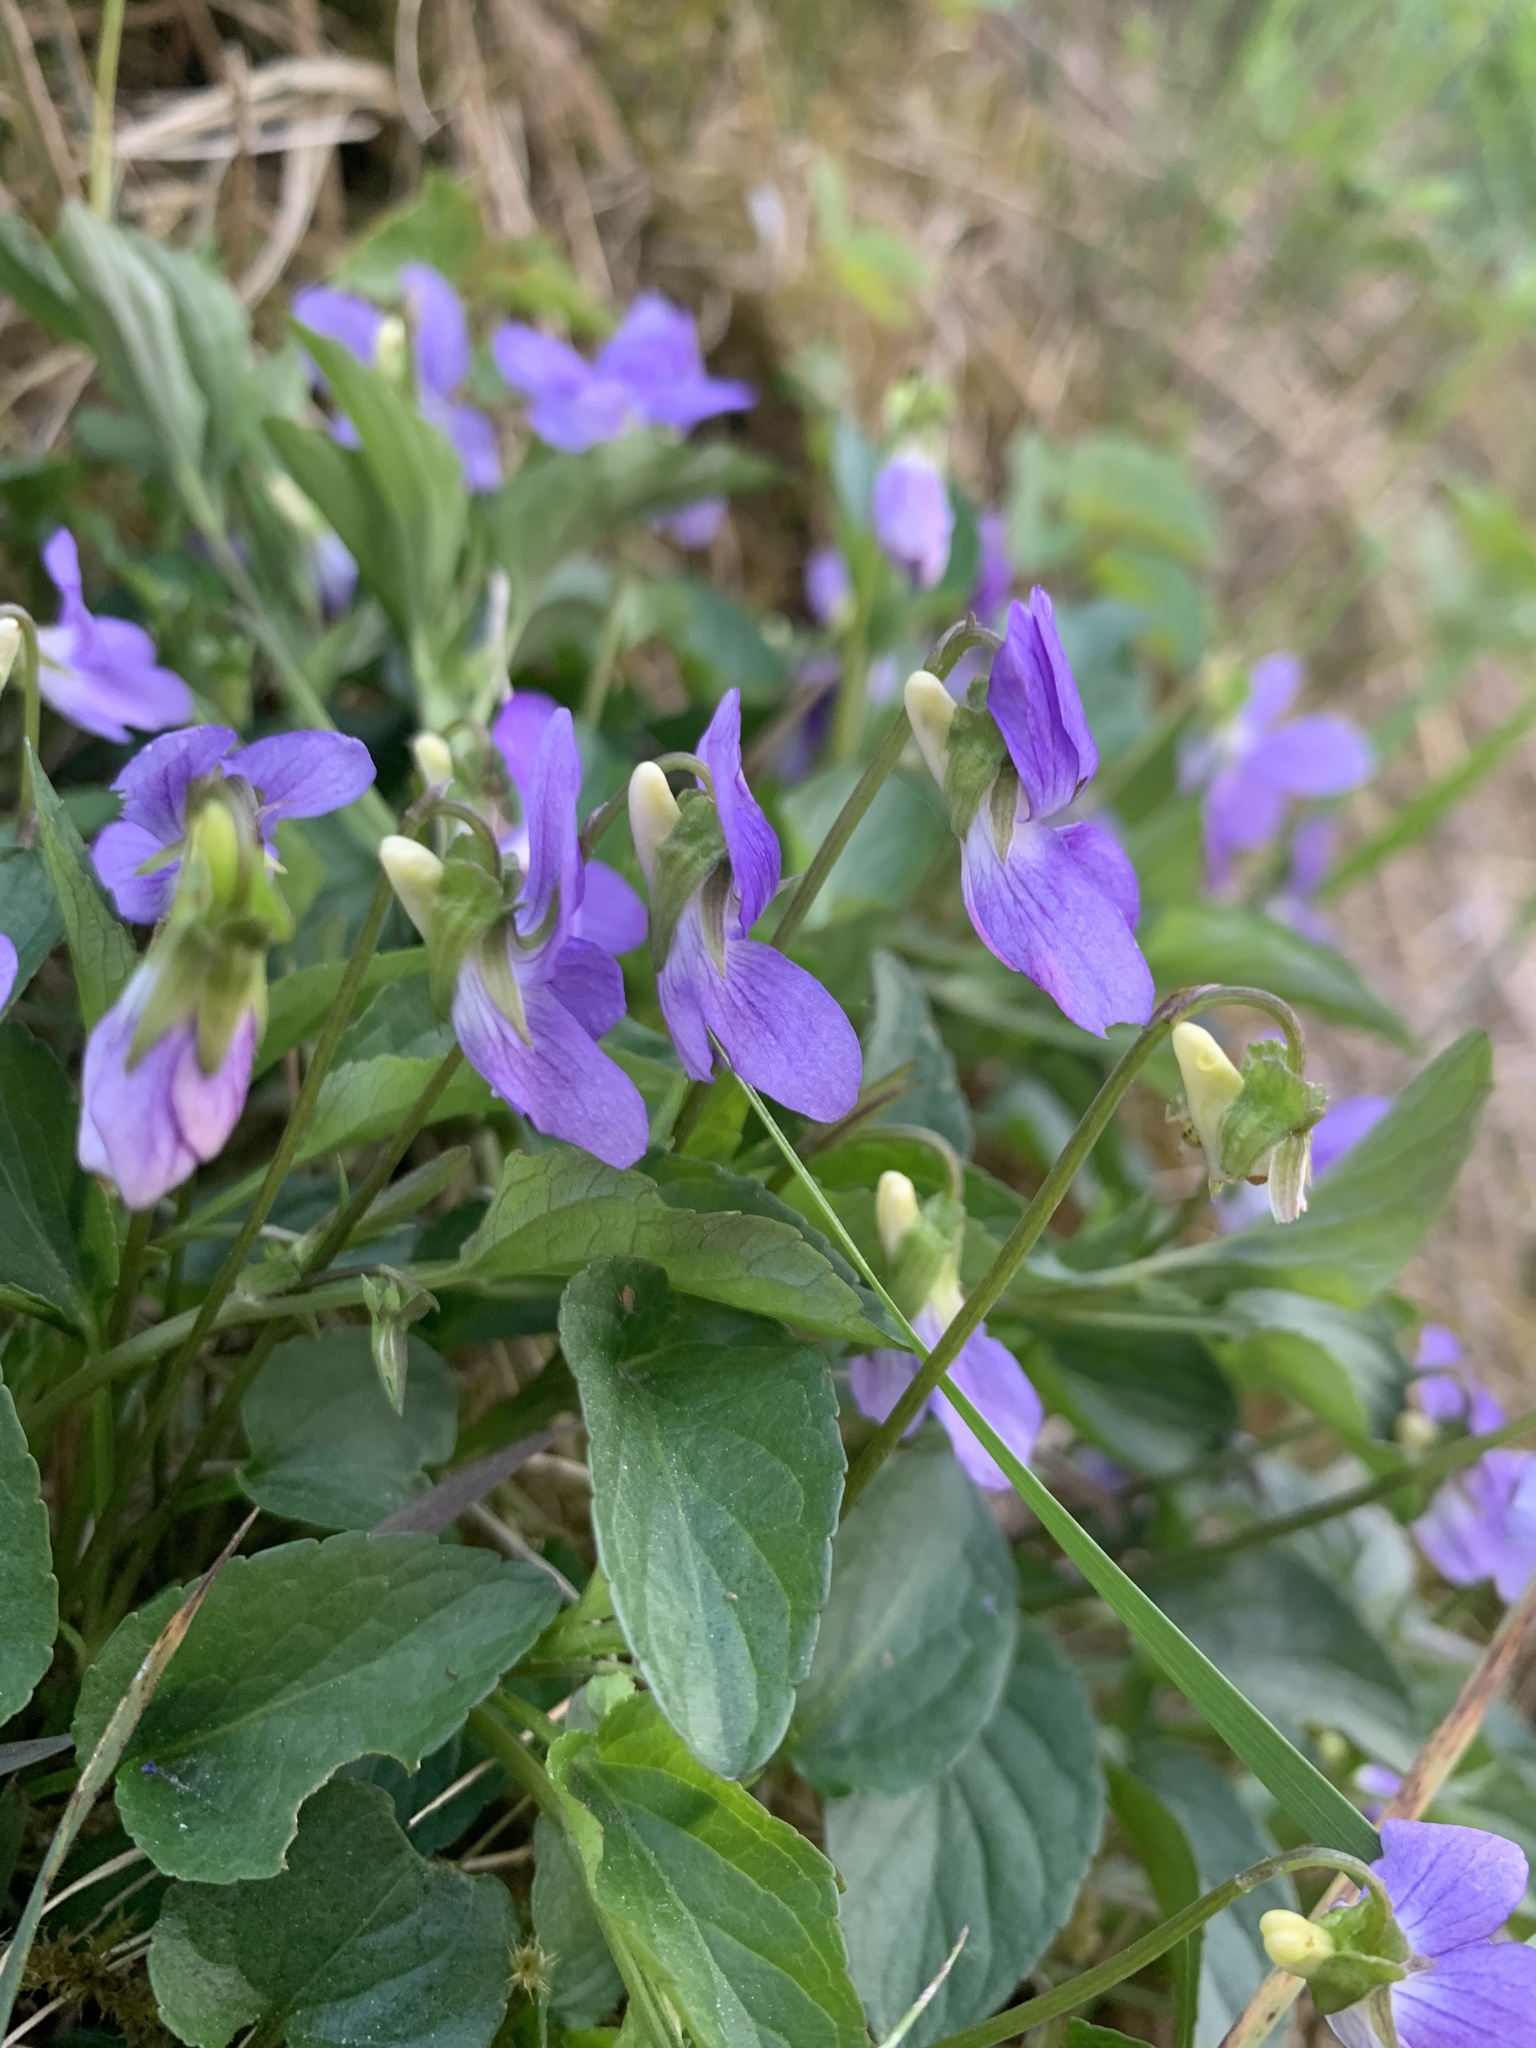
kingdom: Plantae
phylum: Tracheophyta
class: Magnoliopsida
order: Malpighiales
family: Violaceae
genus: Viola
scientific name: Viola canina
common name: Heath dog-violet
